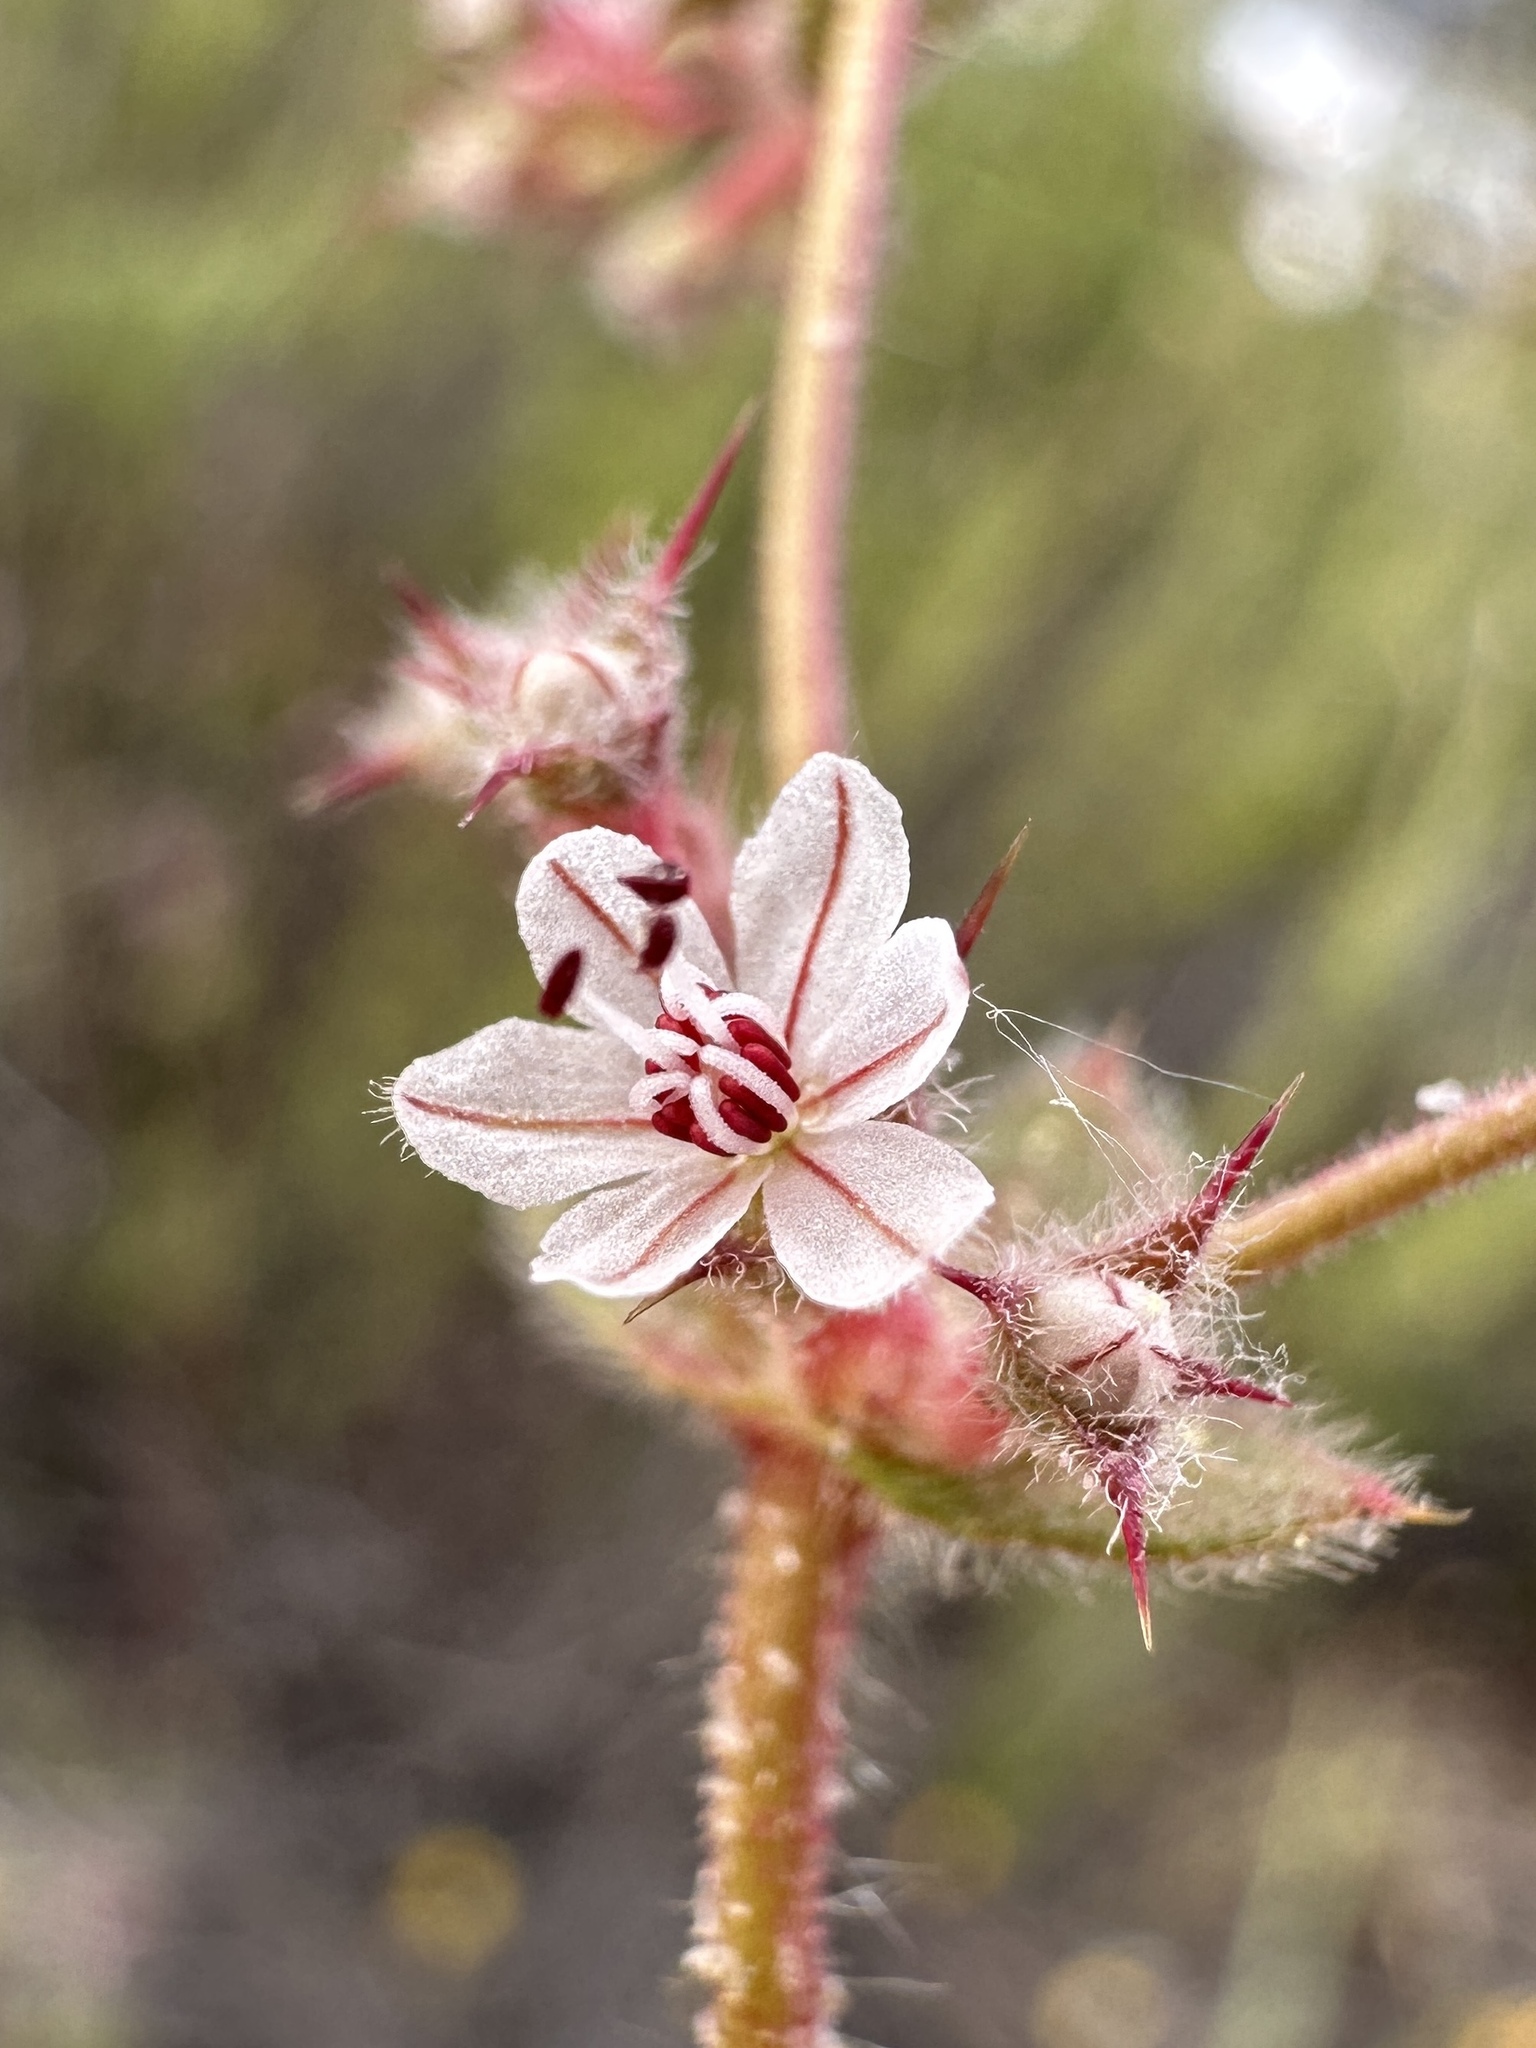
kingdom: Plantae
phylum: Tracheophyta
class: Magnoliopsida
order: Caryophyllales
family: Polygonaceae
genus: Mucronea
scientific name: Mucronea californica
